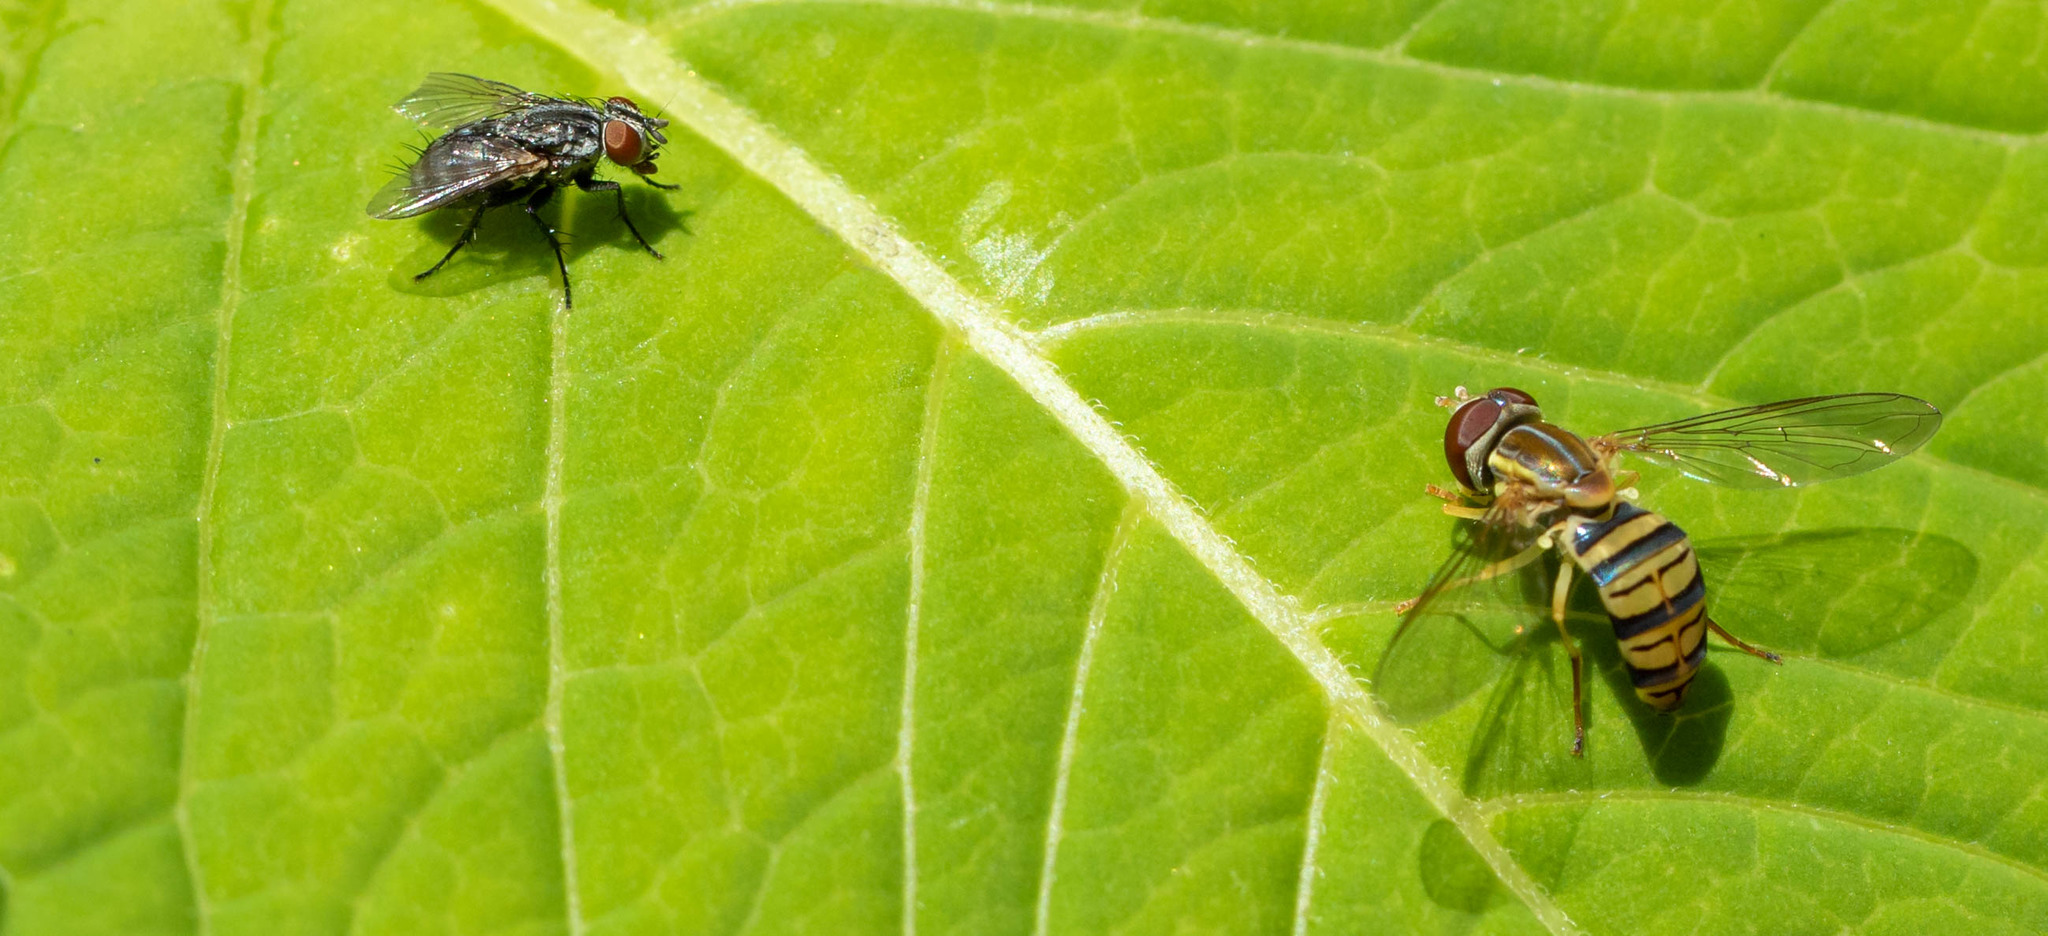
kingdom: Animalia
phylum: Arthropoda
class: Insecta
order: Diptera
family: Syrphidae
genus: Toxomerus
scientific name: Toxomerus politus
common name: Maize calligrapher
